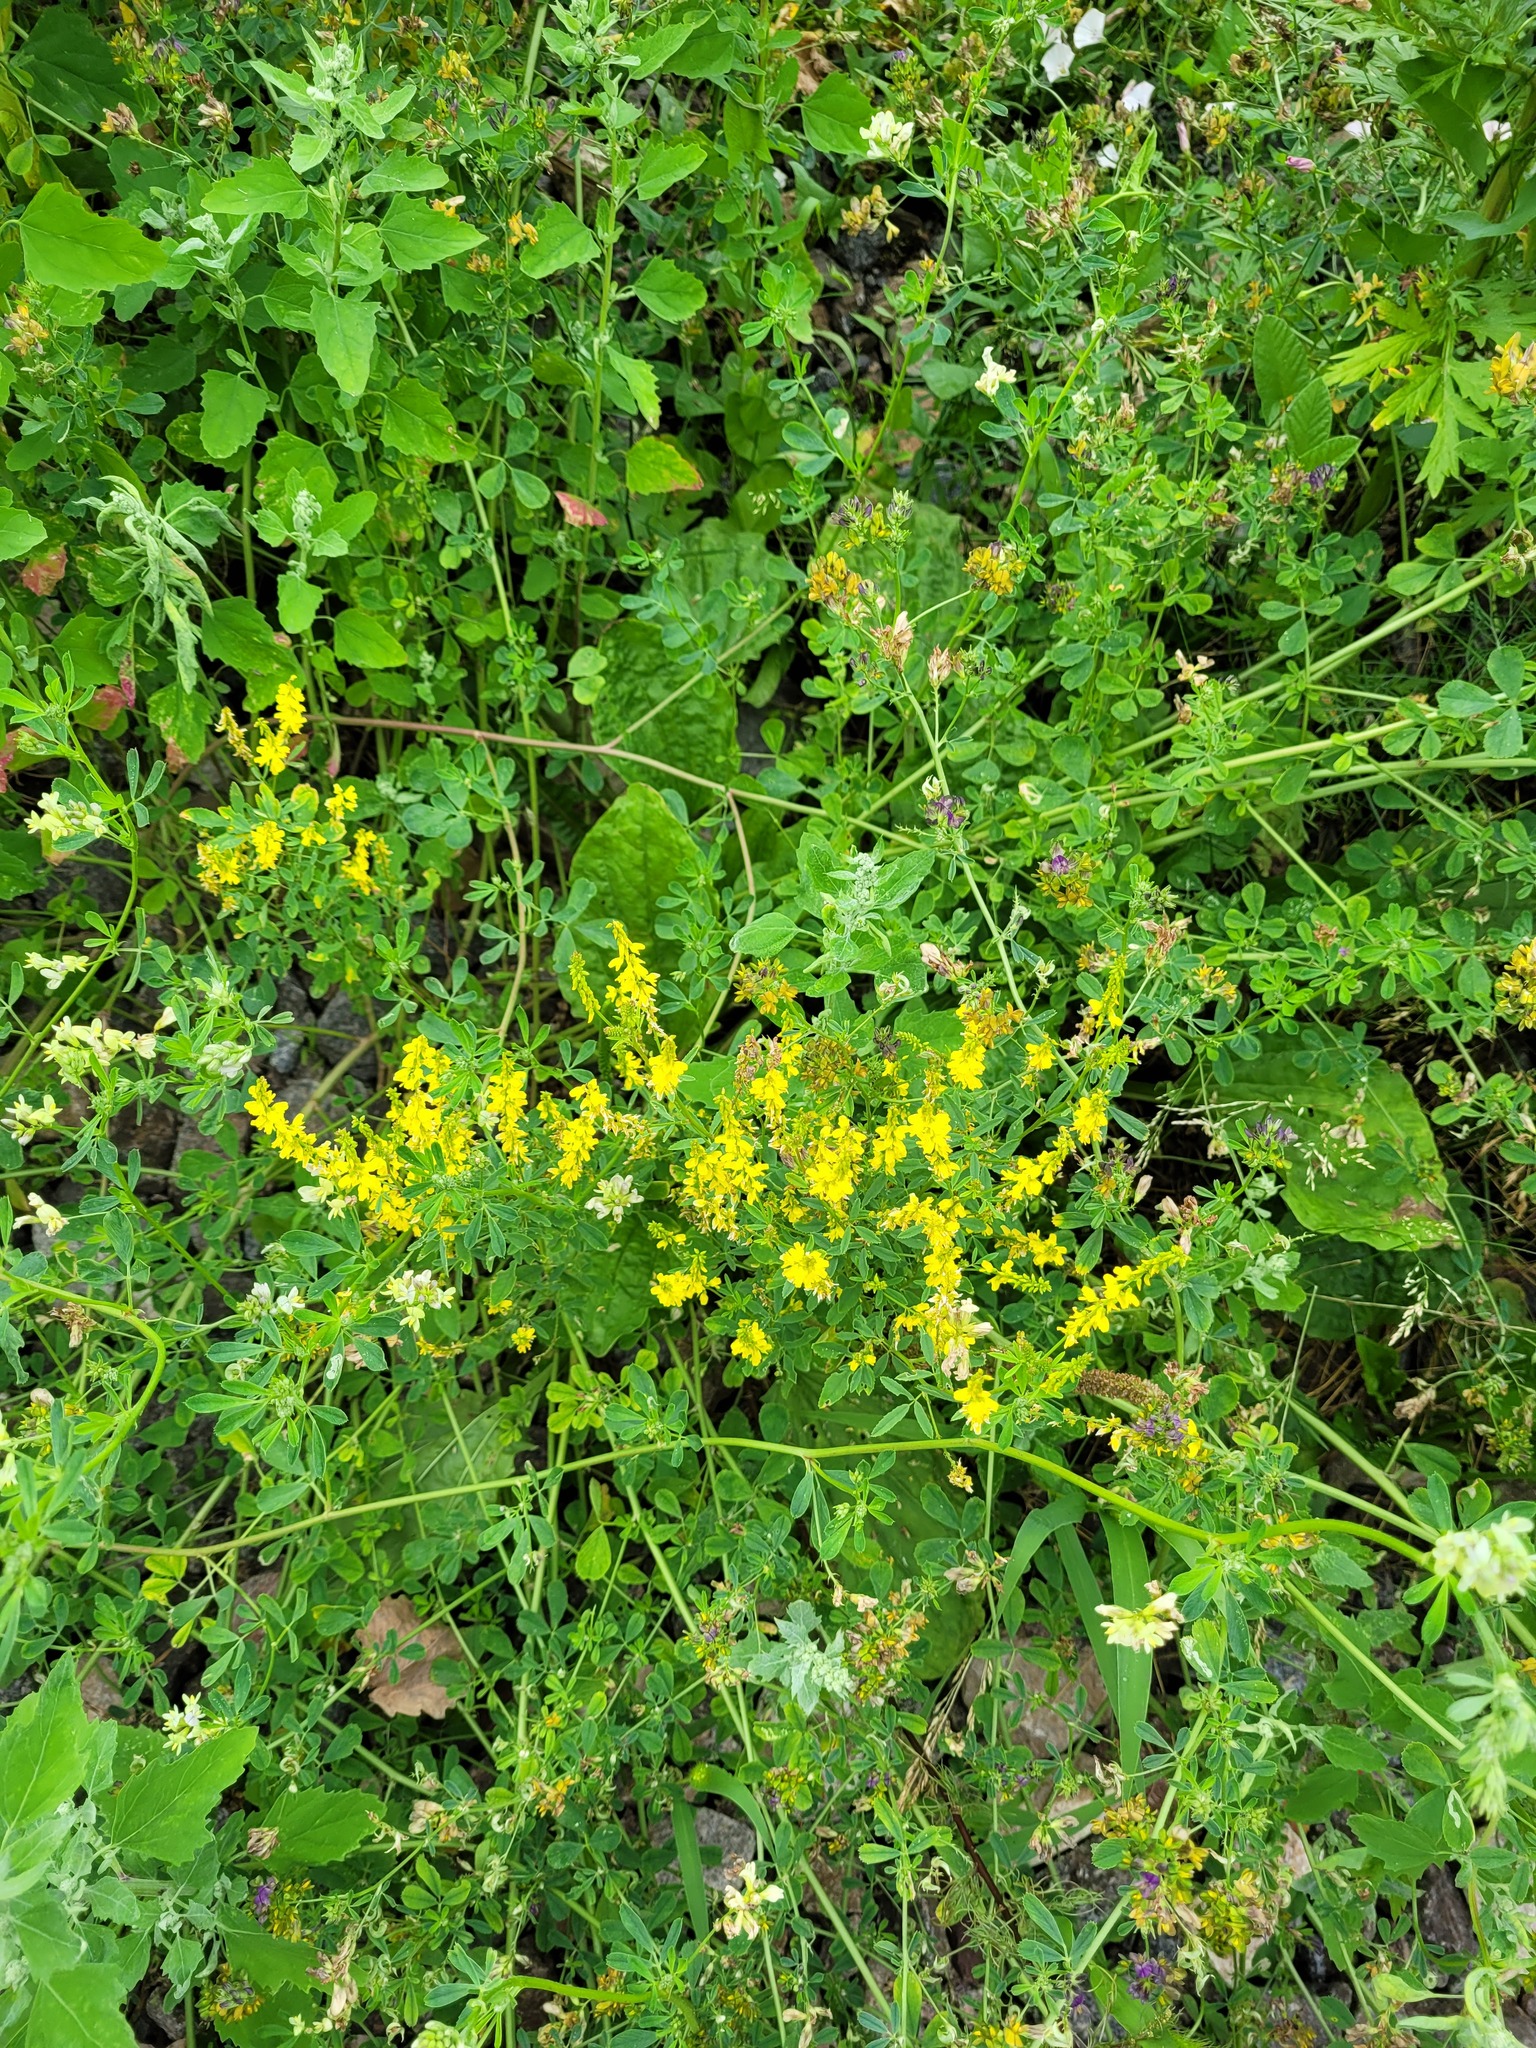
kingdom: Plantae
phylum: Tracheophyta
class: Magnoliopsida
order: Fabales
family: Fabaceae
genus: Medicago
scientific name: Medicago varia
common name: Sand lucerne
